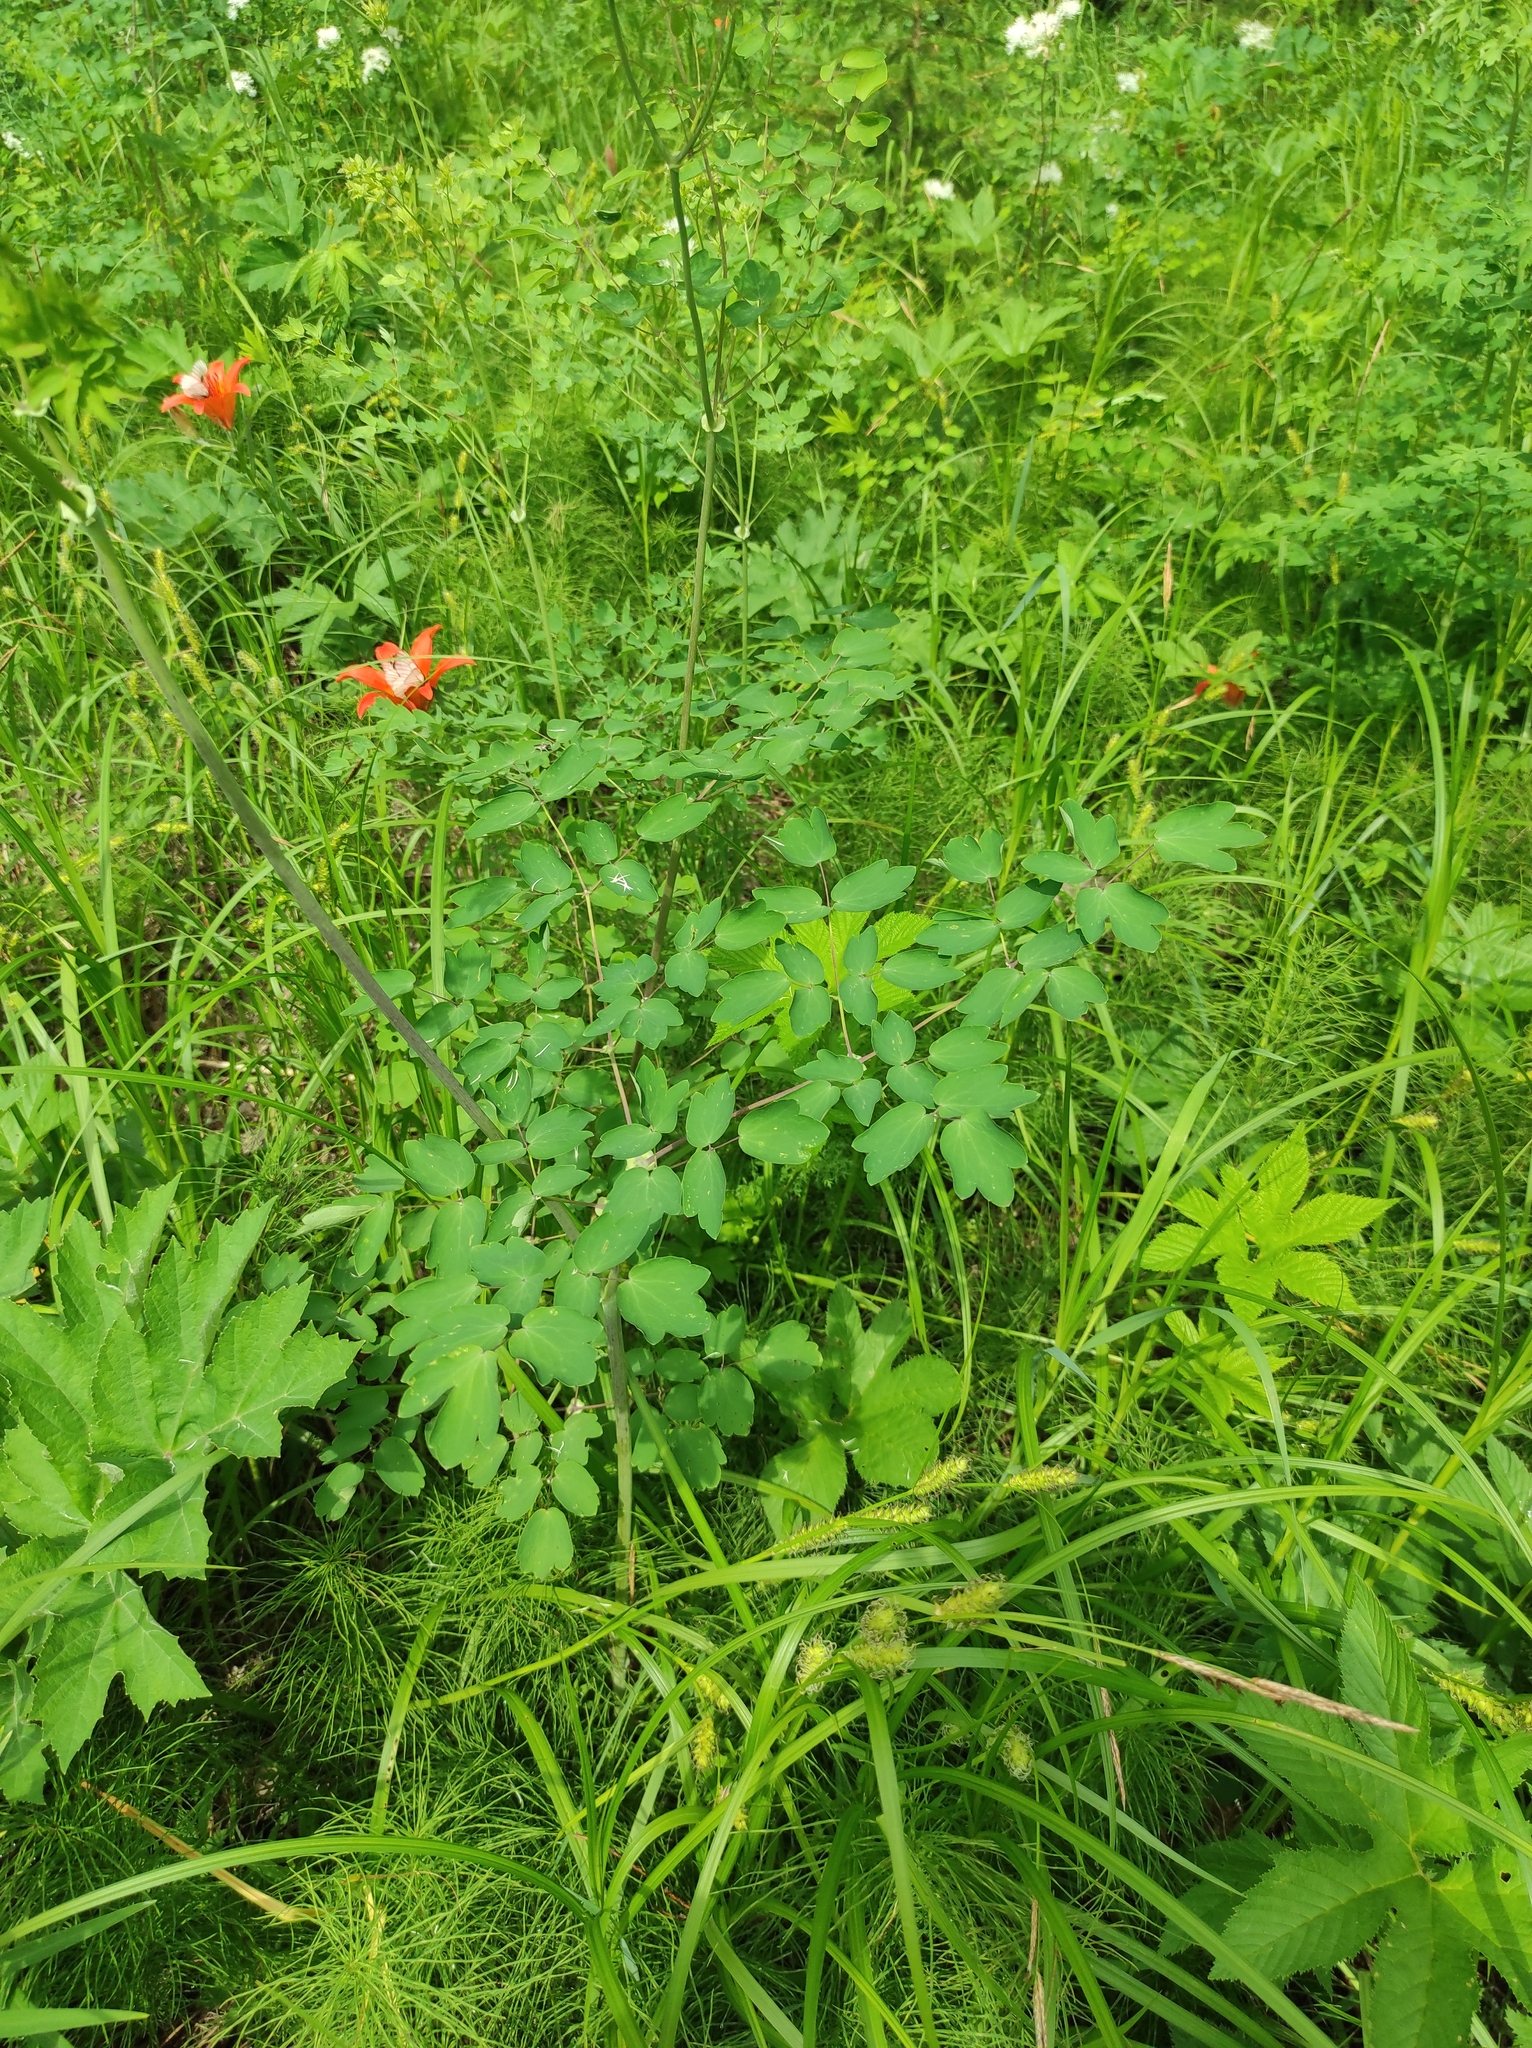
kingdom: Plantae
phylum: Tracheophyta
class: Magnoliopsida
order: Ranunculales
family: Ranunculaceae
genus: Thalictrum
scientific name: Thalictrum aquilegiifolium
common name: French meadow-rue
